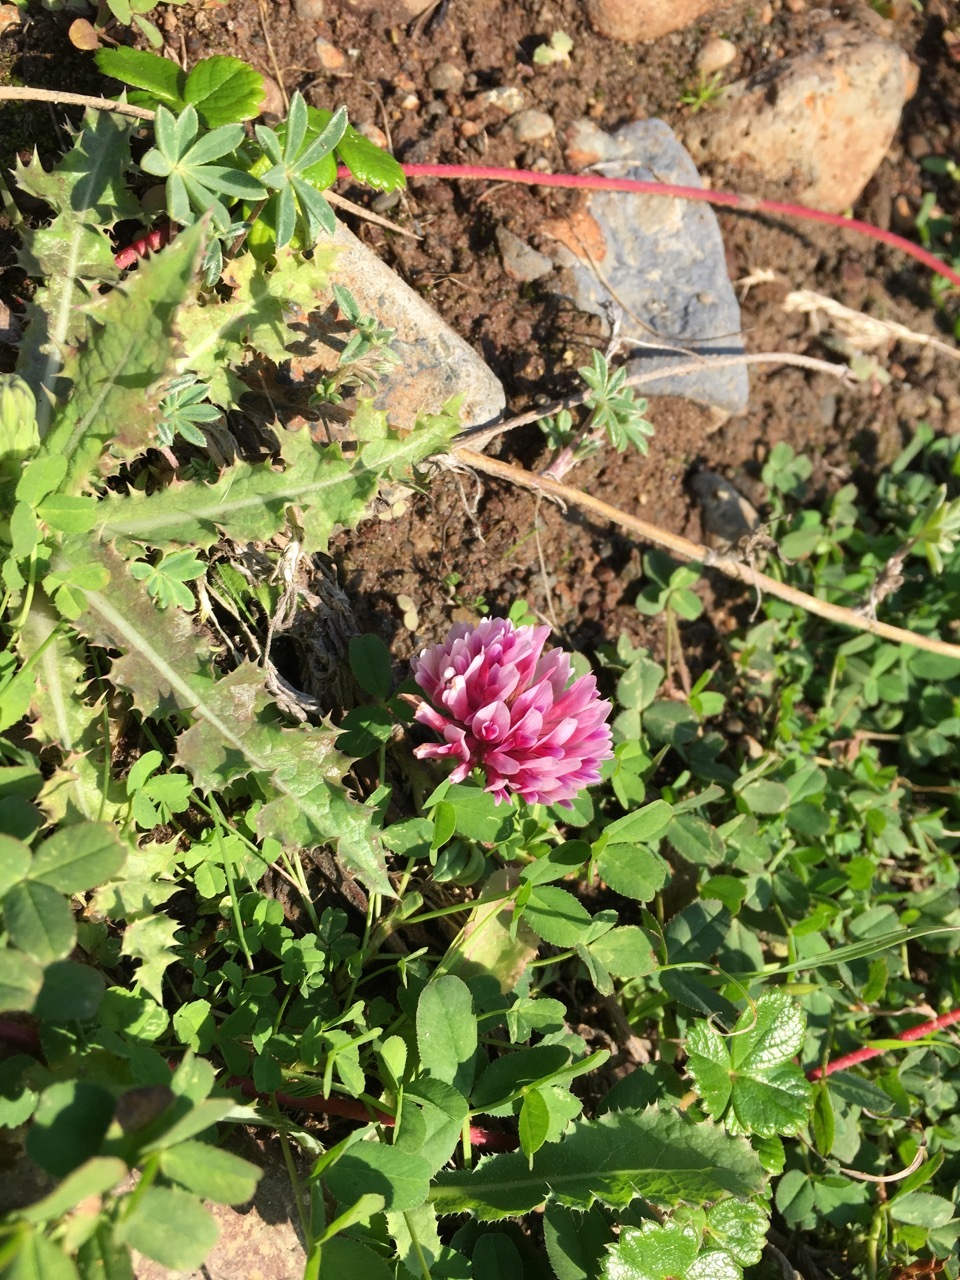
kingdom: Plantae
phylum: Tracheophyta
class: Magnoliopsida
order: Fabales
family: Fabaceae
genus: Trifolium
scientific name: Trifolium wormskioldii
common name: Springbank clover
